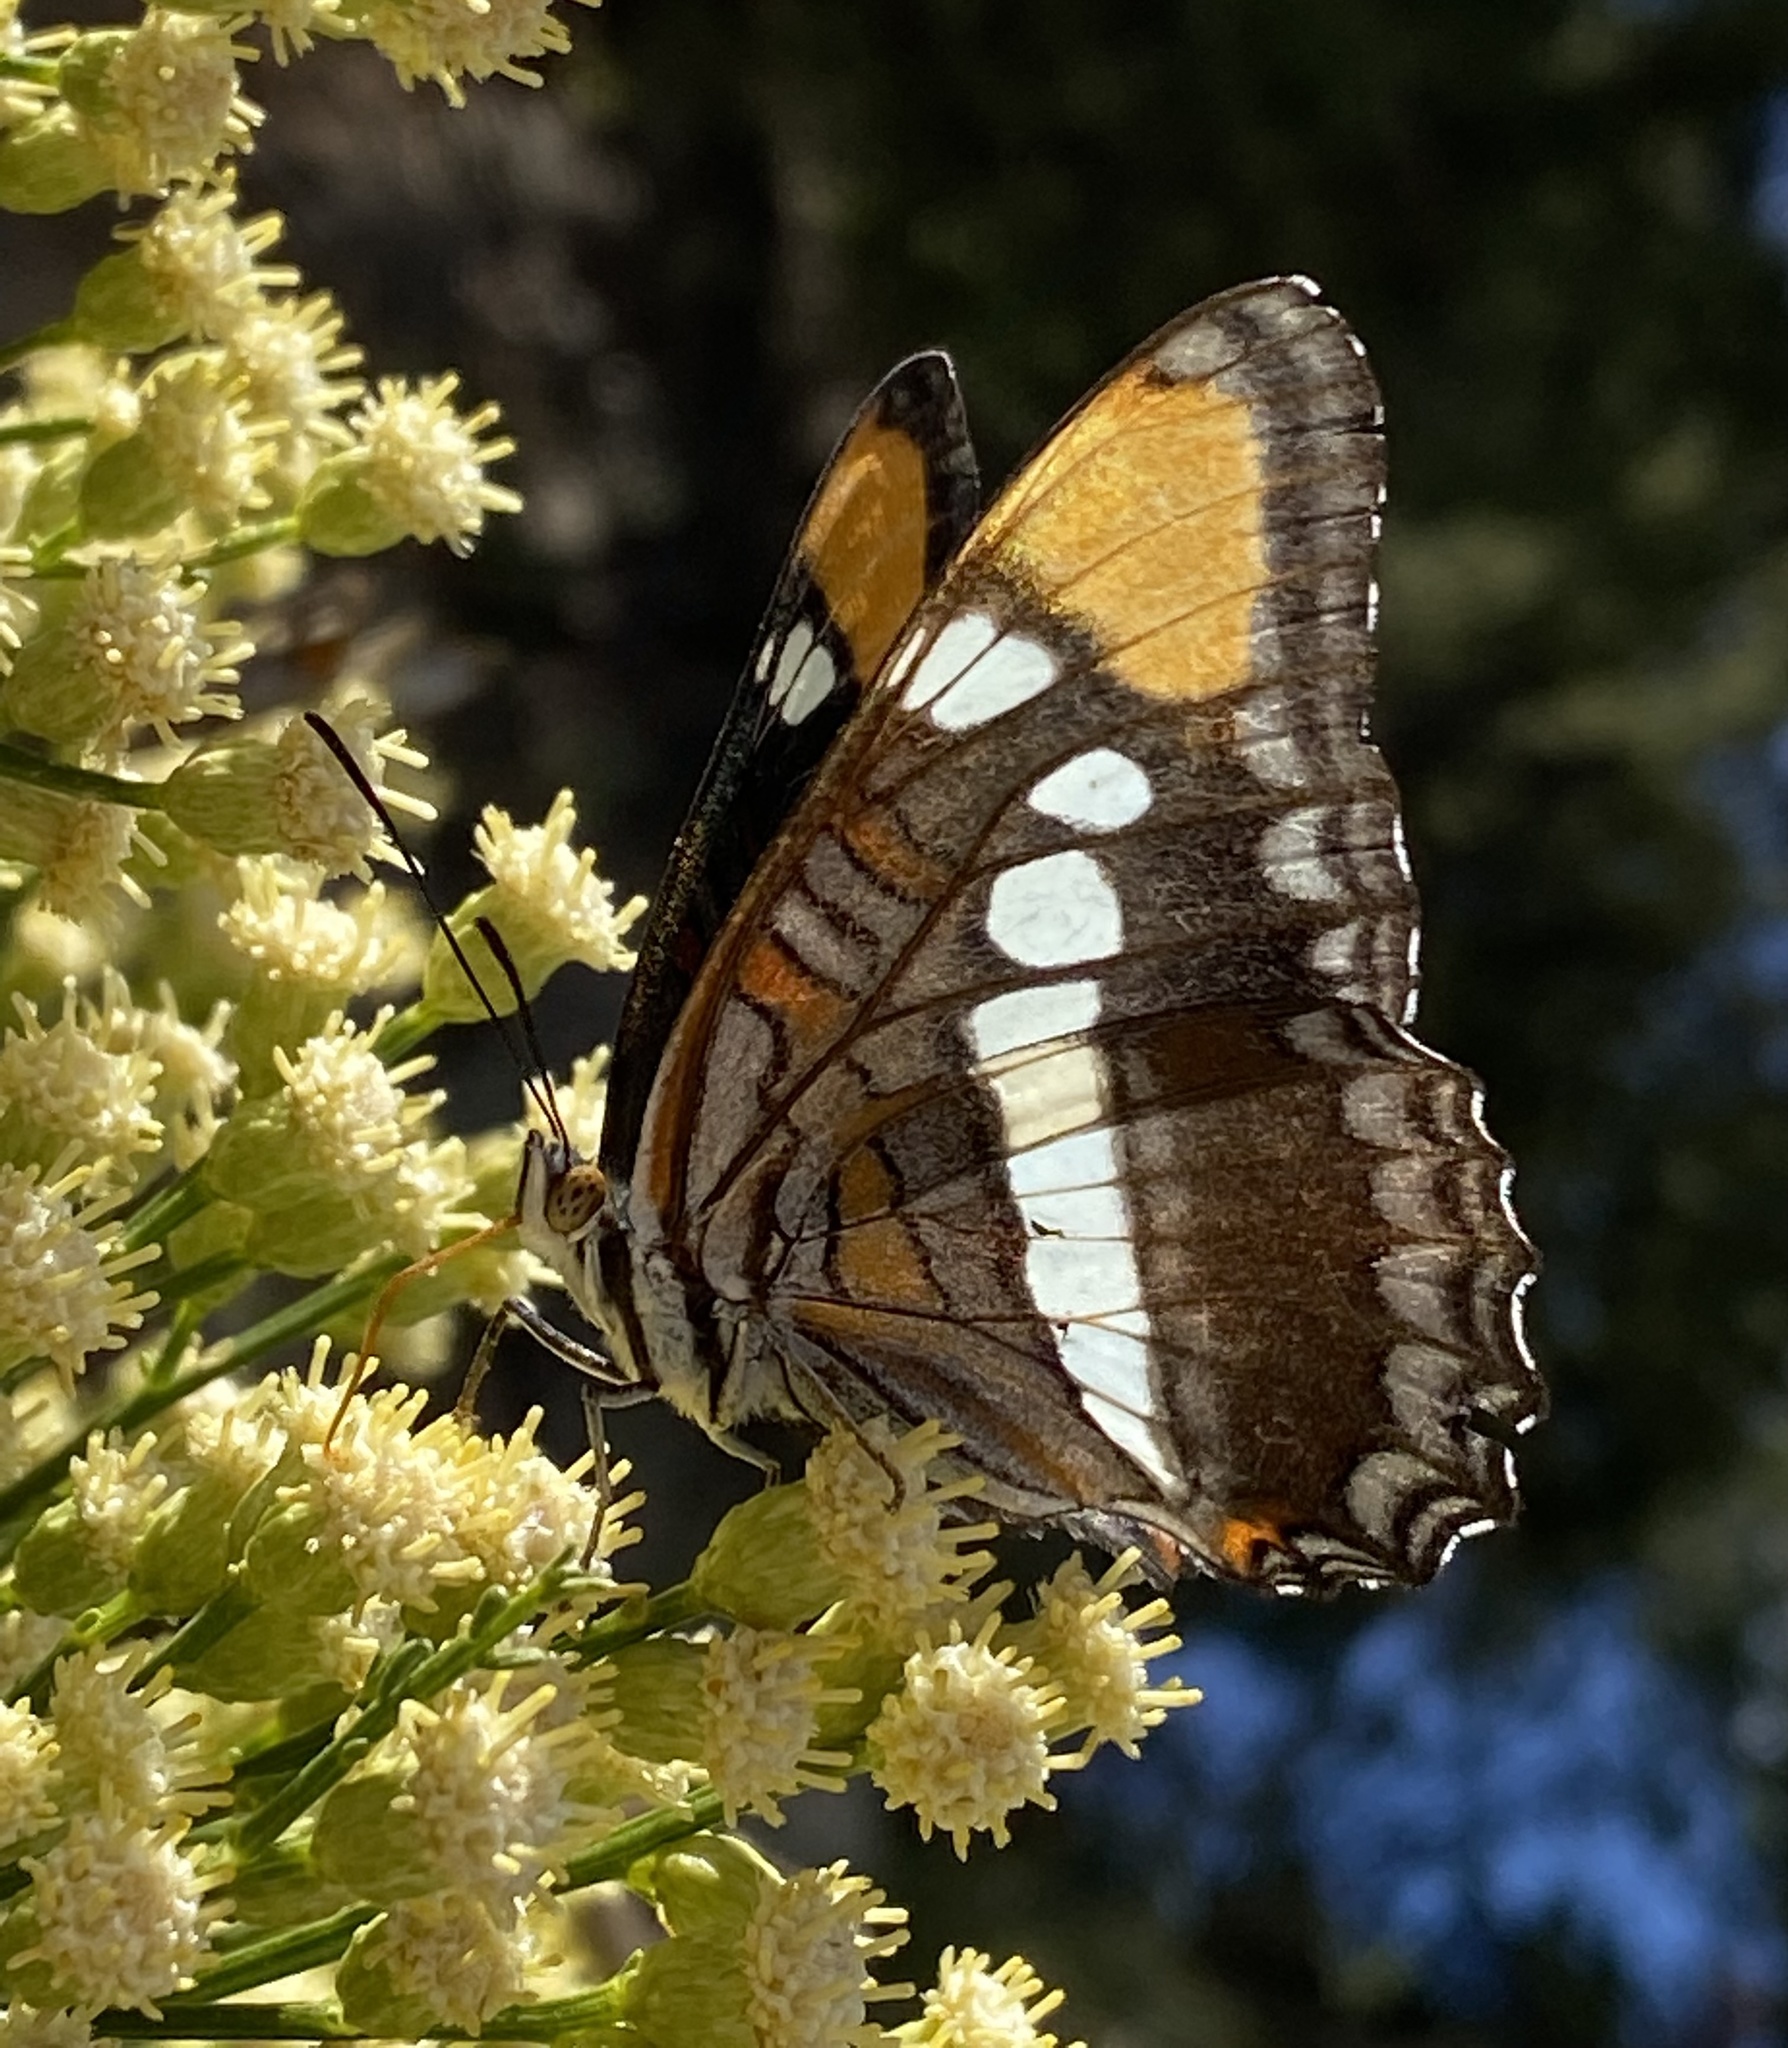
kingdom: Animalia
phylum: Arthropoda
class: Insecta
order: Lepidoptera
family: Nymphalidae
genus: Limenitis
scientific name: Limenitis bredowii
